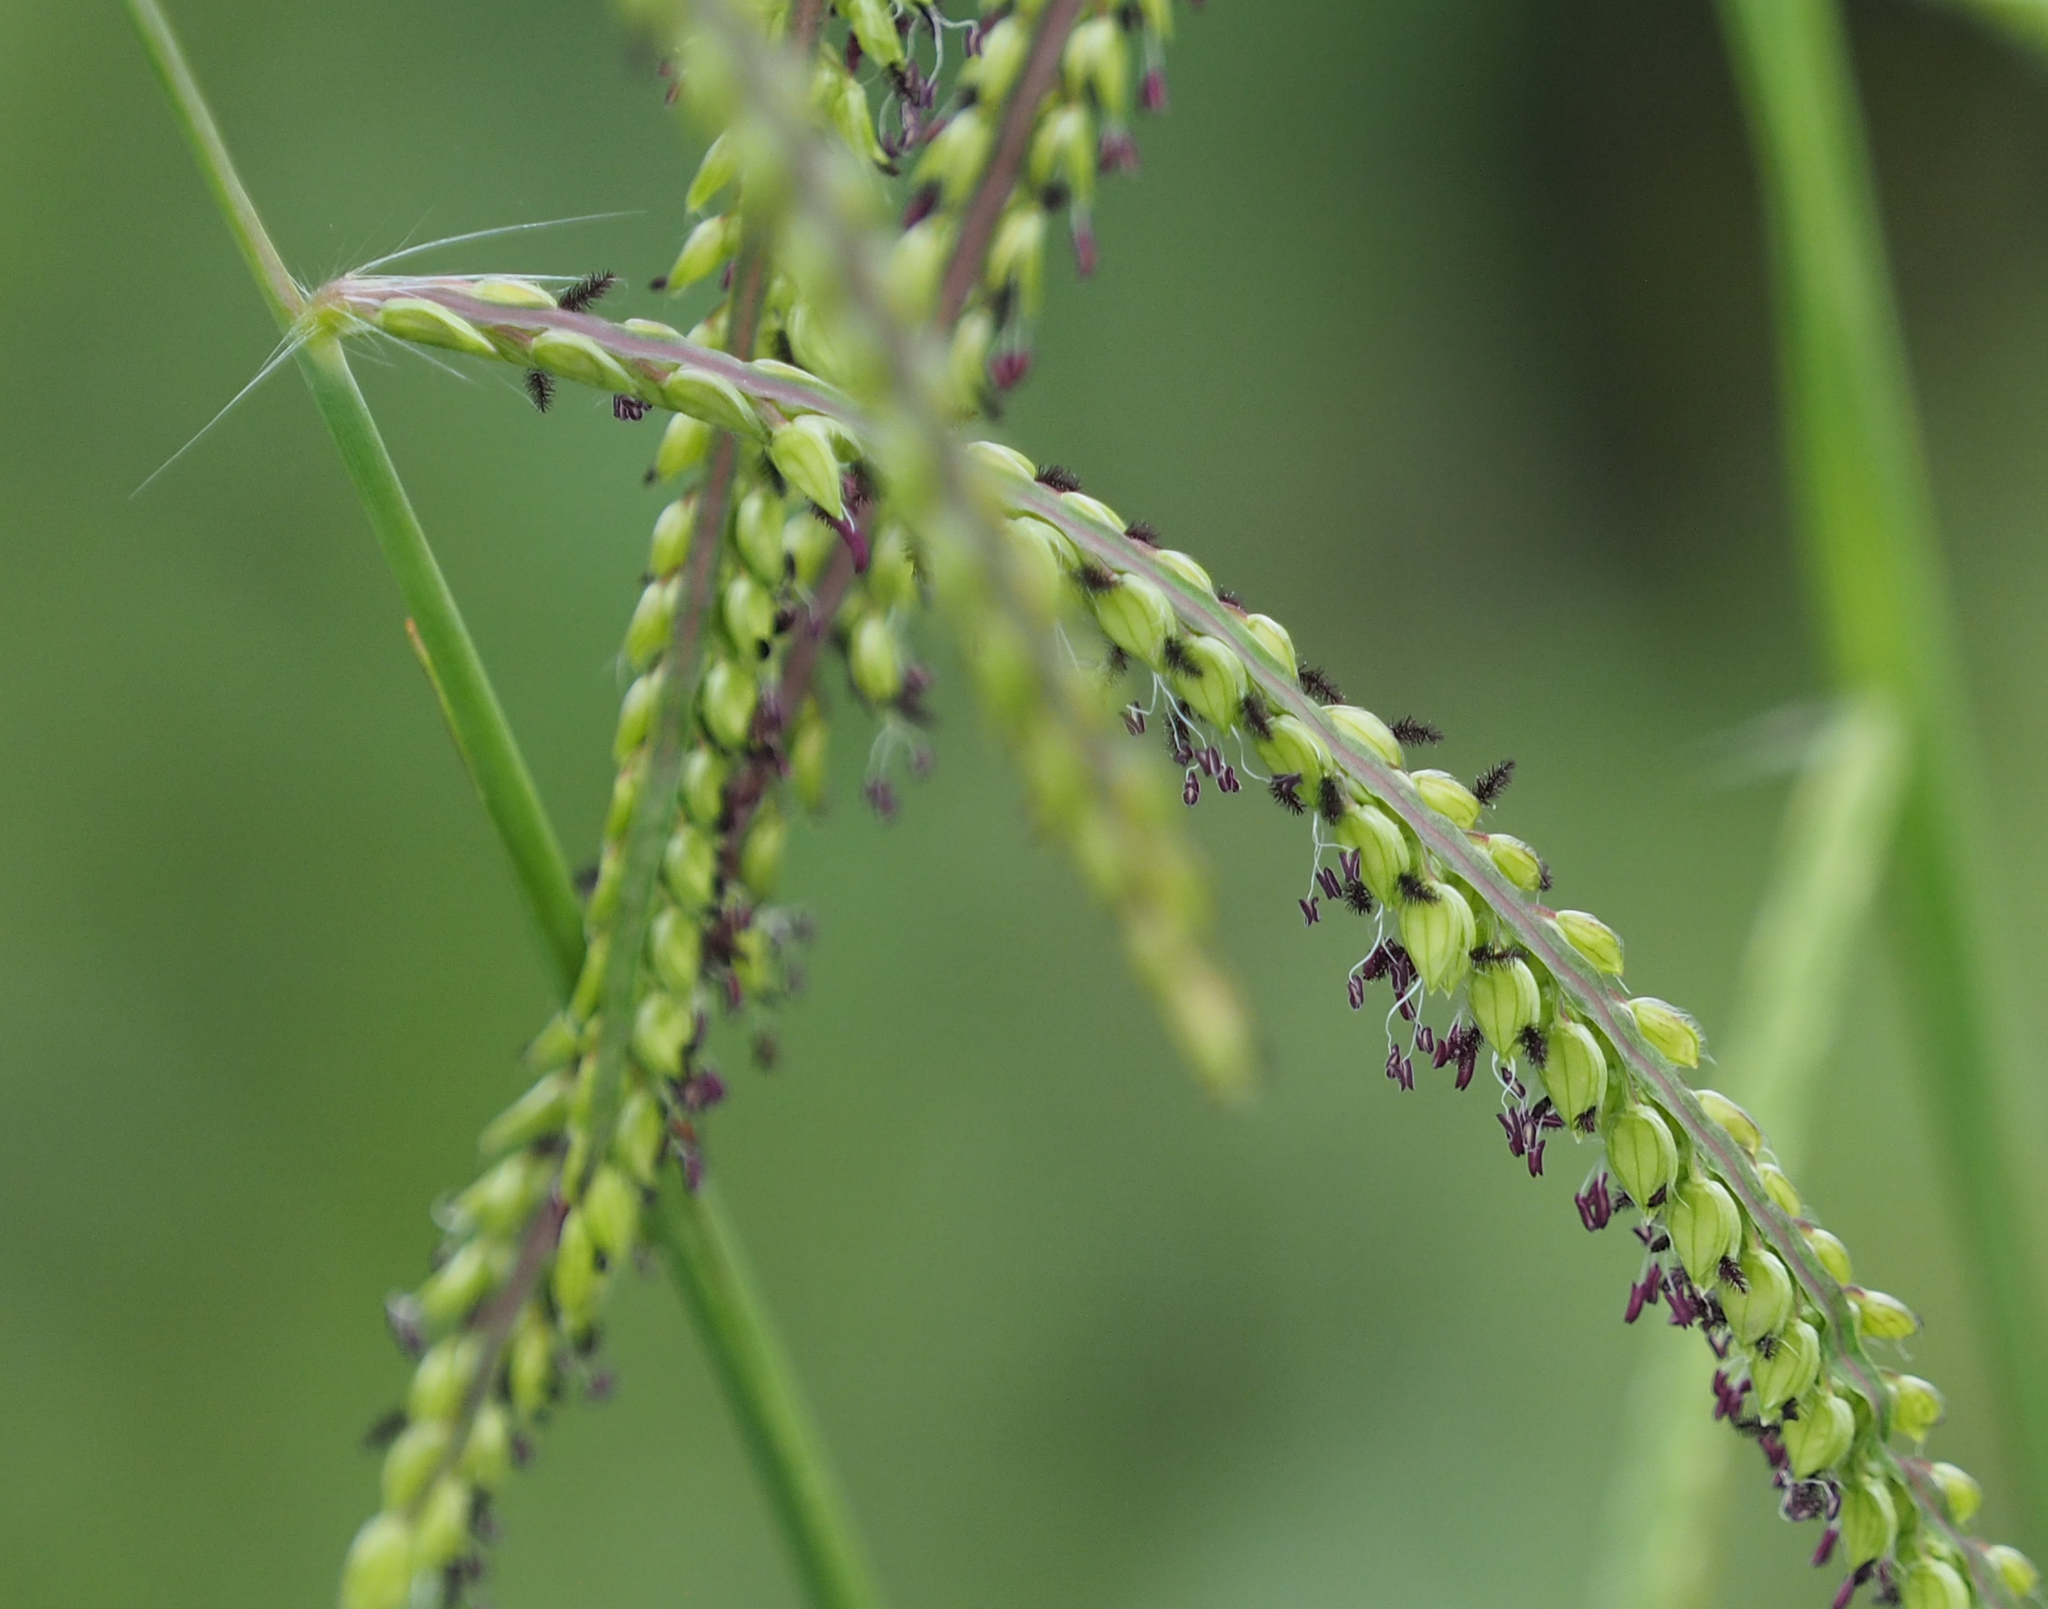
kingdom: Plantae
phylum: Tracheophyta
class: Liliopsida
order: Poales
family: Poaceae
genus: Paspalum
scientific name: Paspalum dilatatum
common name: Dallisgrass
